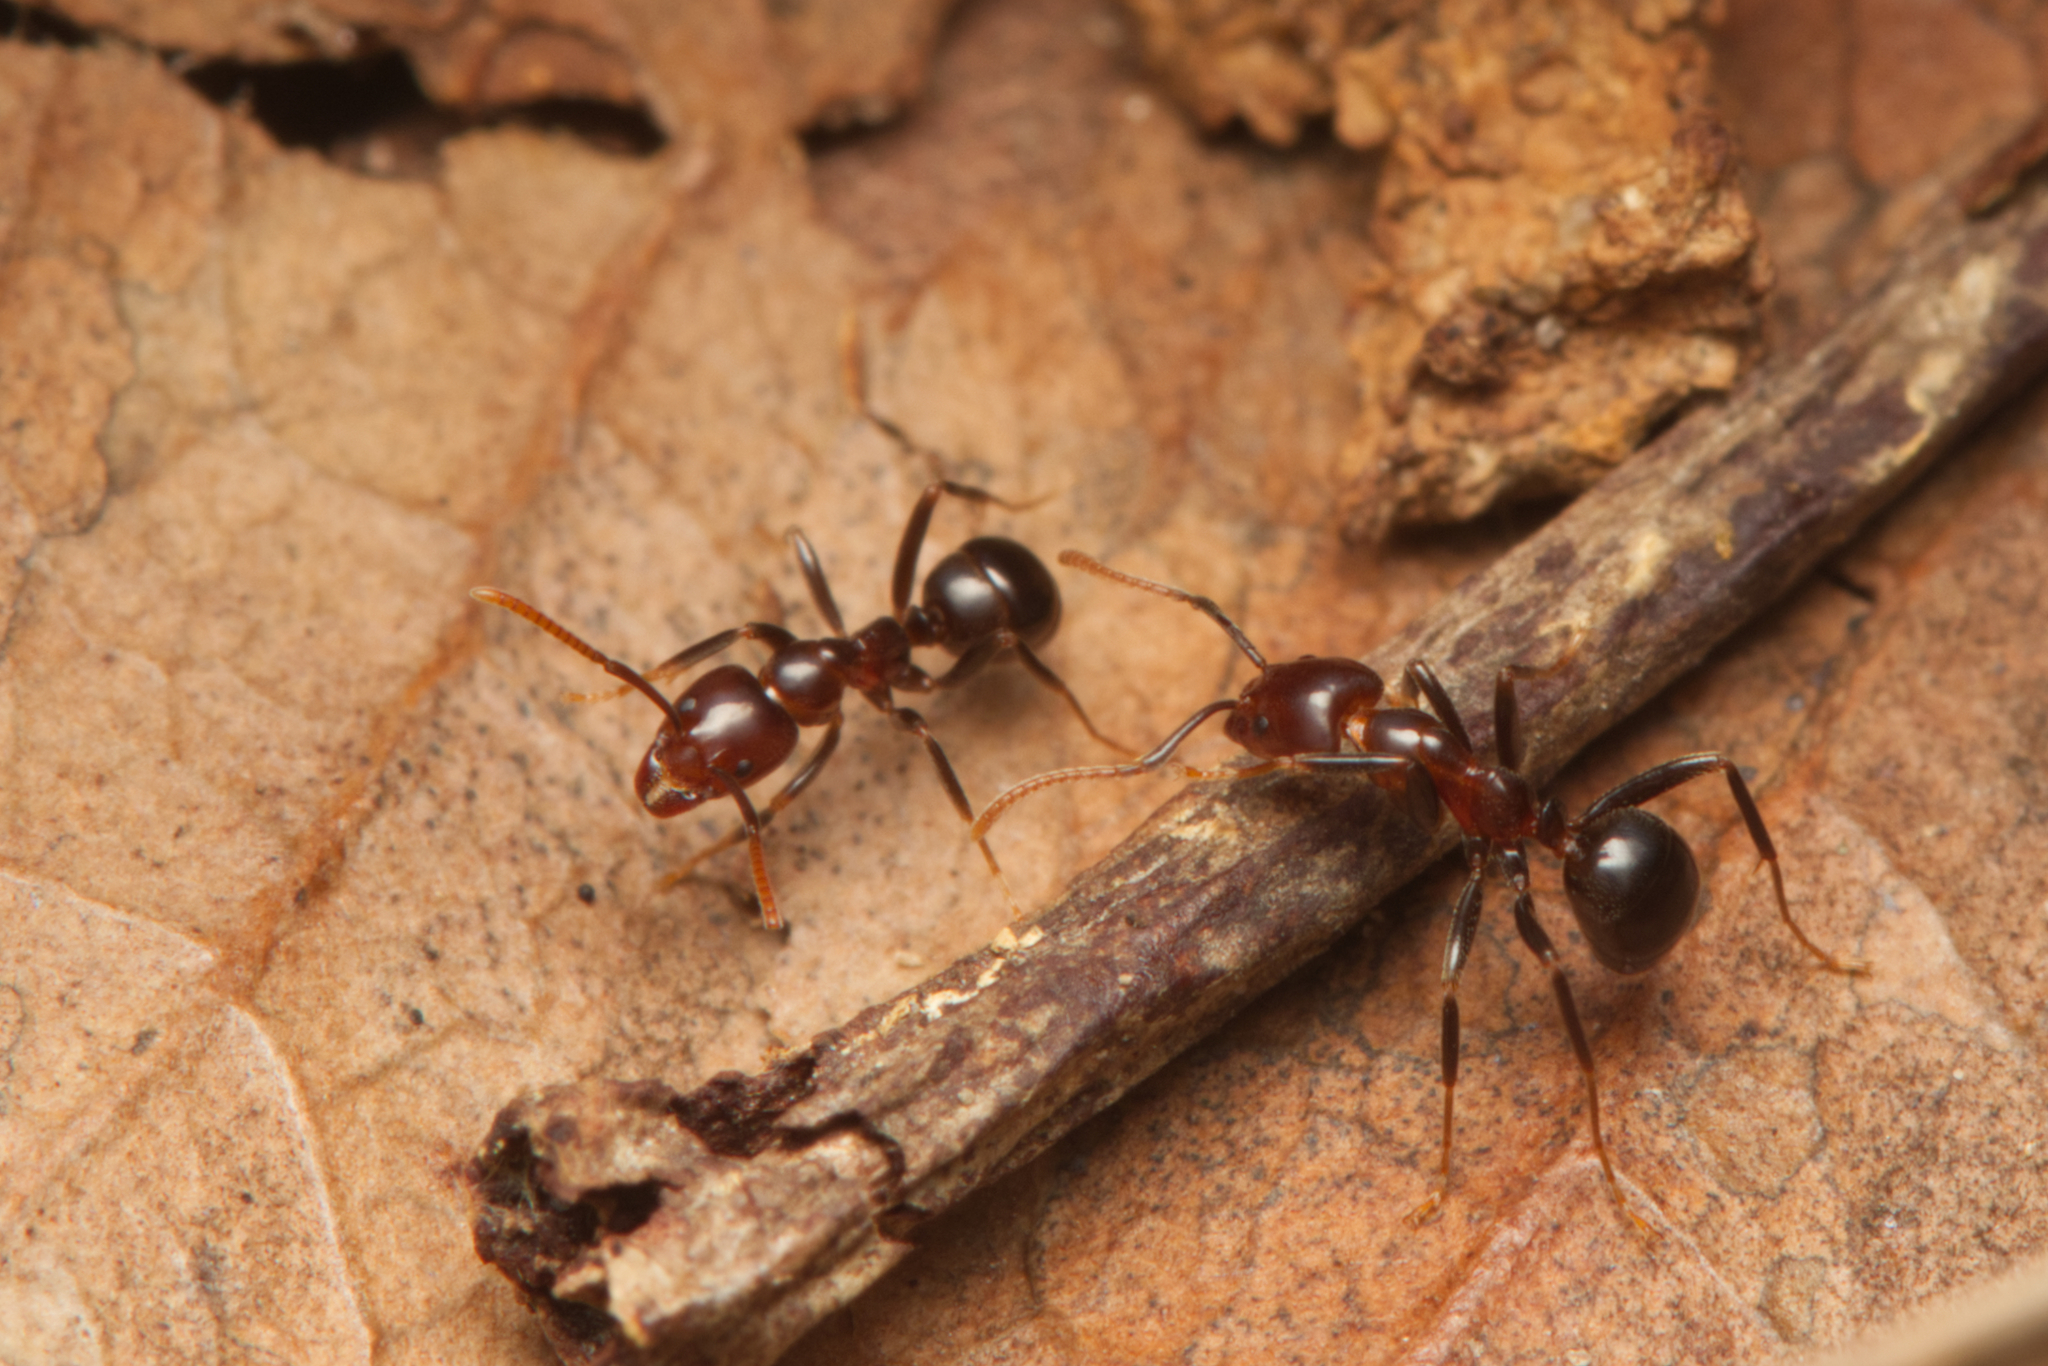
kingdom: Animalia
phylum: Arthropoda
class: Insecta
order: Hymenoptera
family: Formicidae
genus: Papyrius
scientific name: Papyrius nitidus
